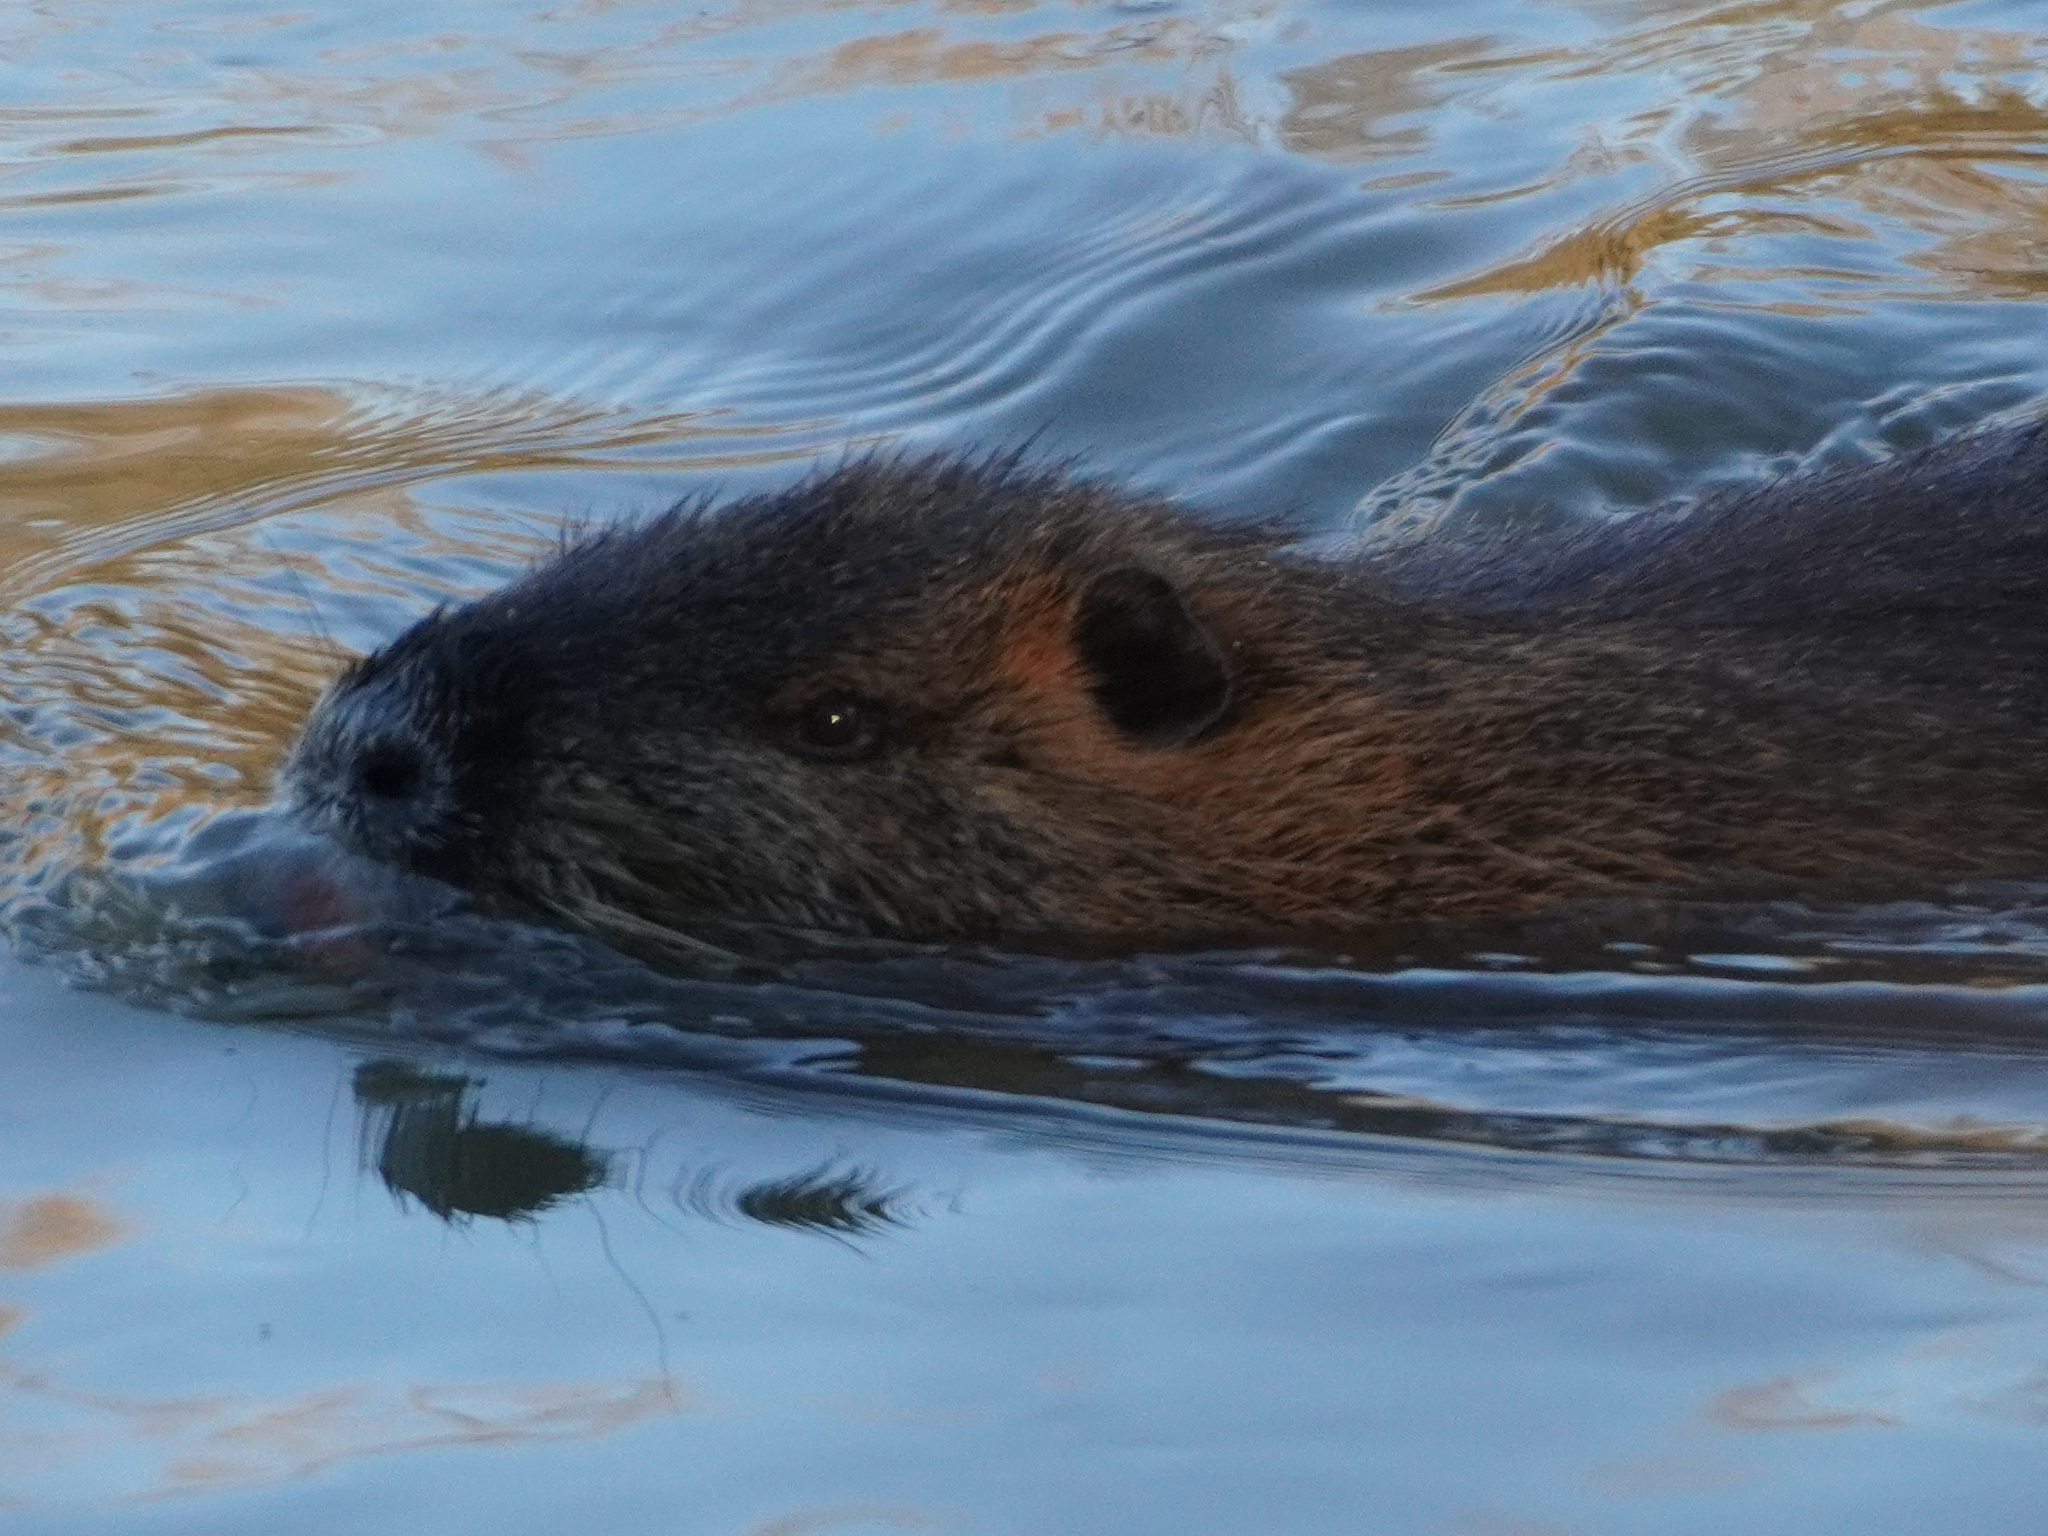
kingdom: Animalia
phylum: Chordata
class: Mammalia
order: Rodentia
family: Myocastoridae
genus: Myocastor
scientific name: Myocastor coypus
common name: Coypu
